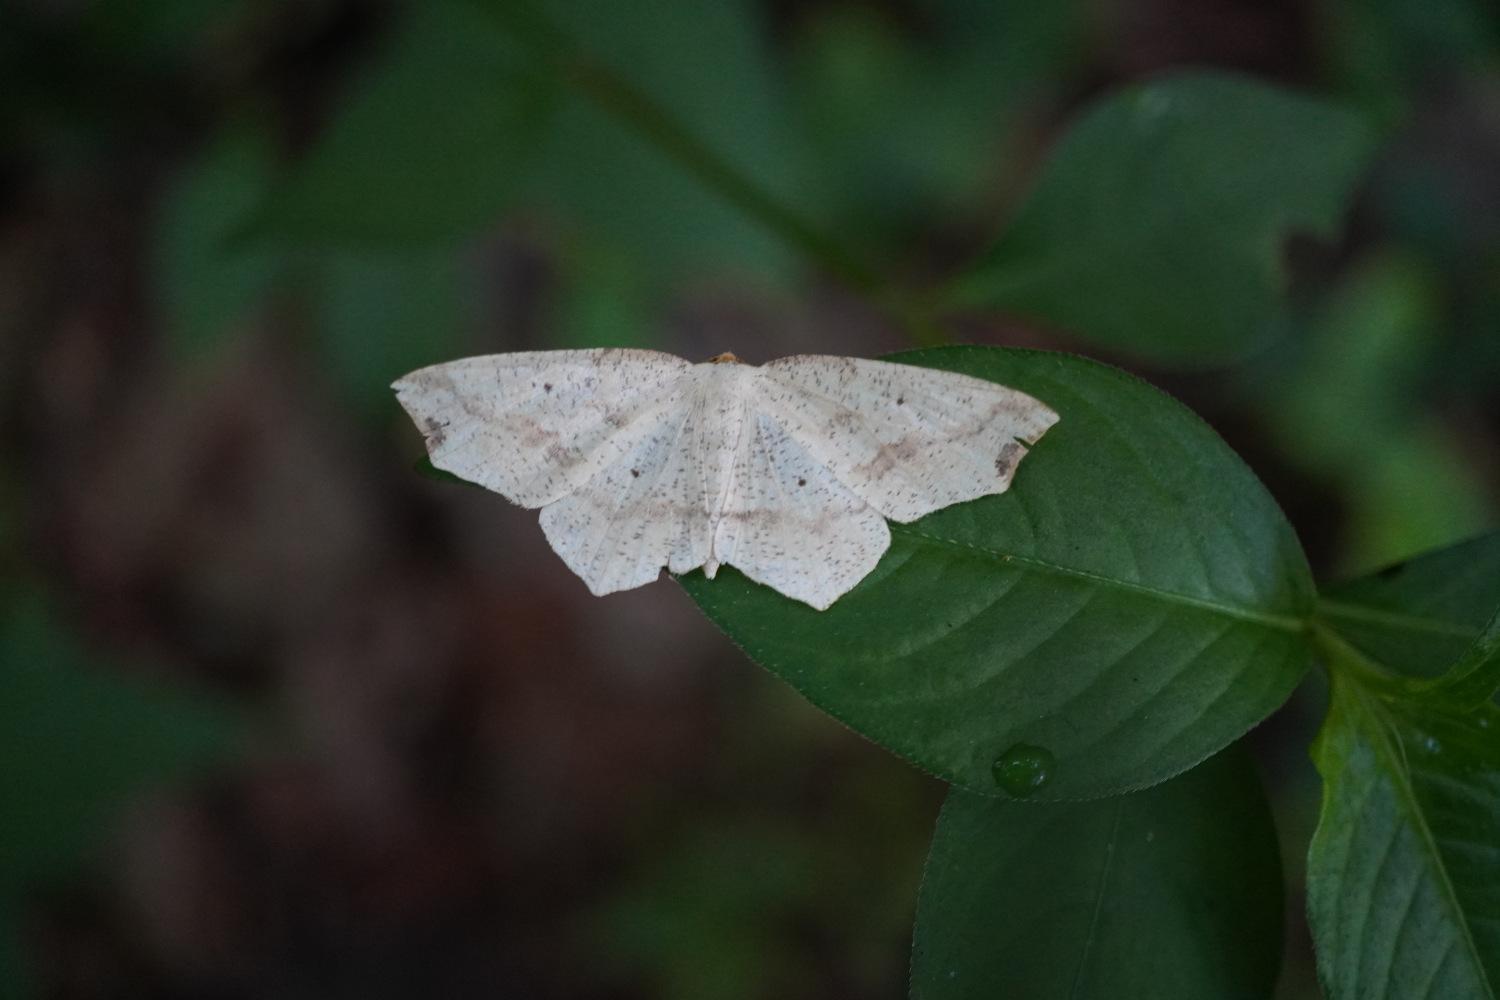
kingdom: Animalia
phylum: Arthropoda
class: Insecta
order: Lepidoptera
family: Geometridae
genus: Pareclipsis
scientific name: Pareclipsis gracilis
